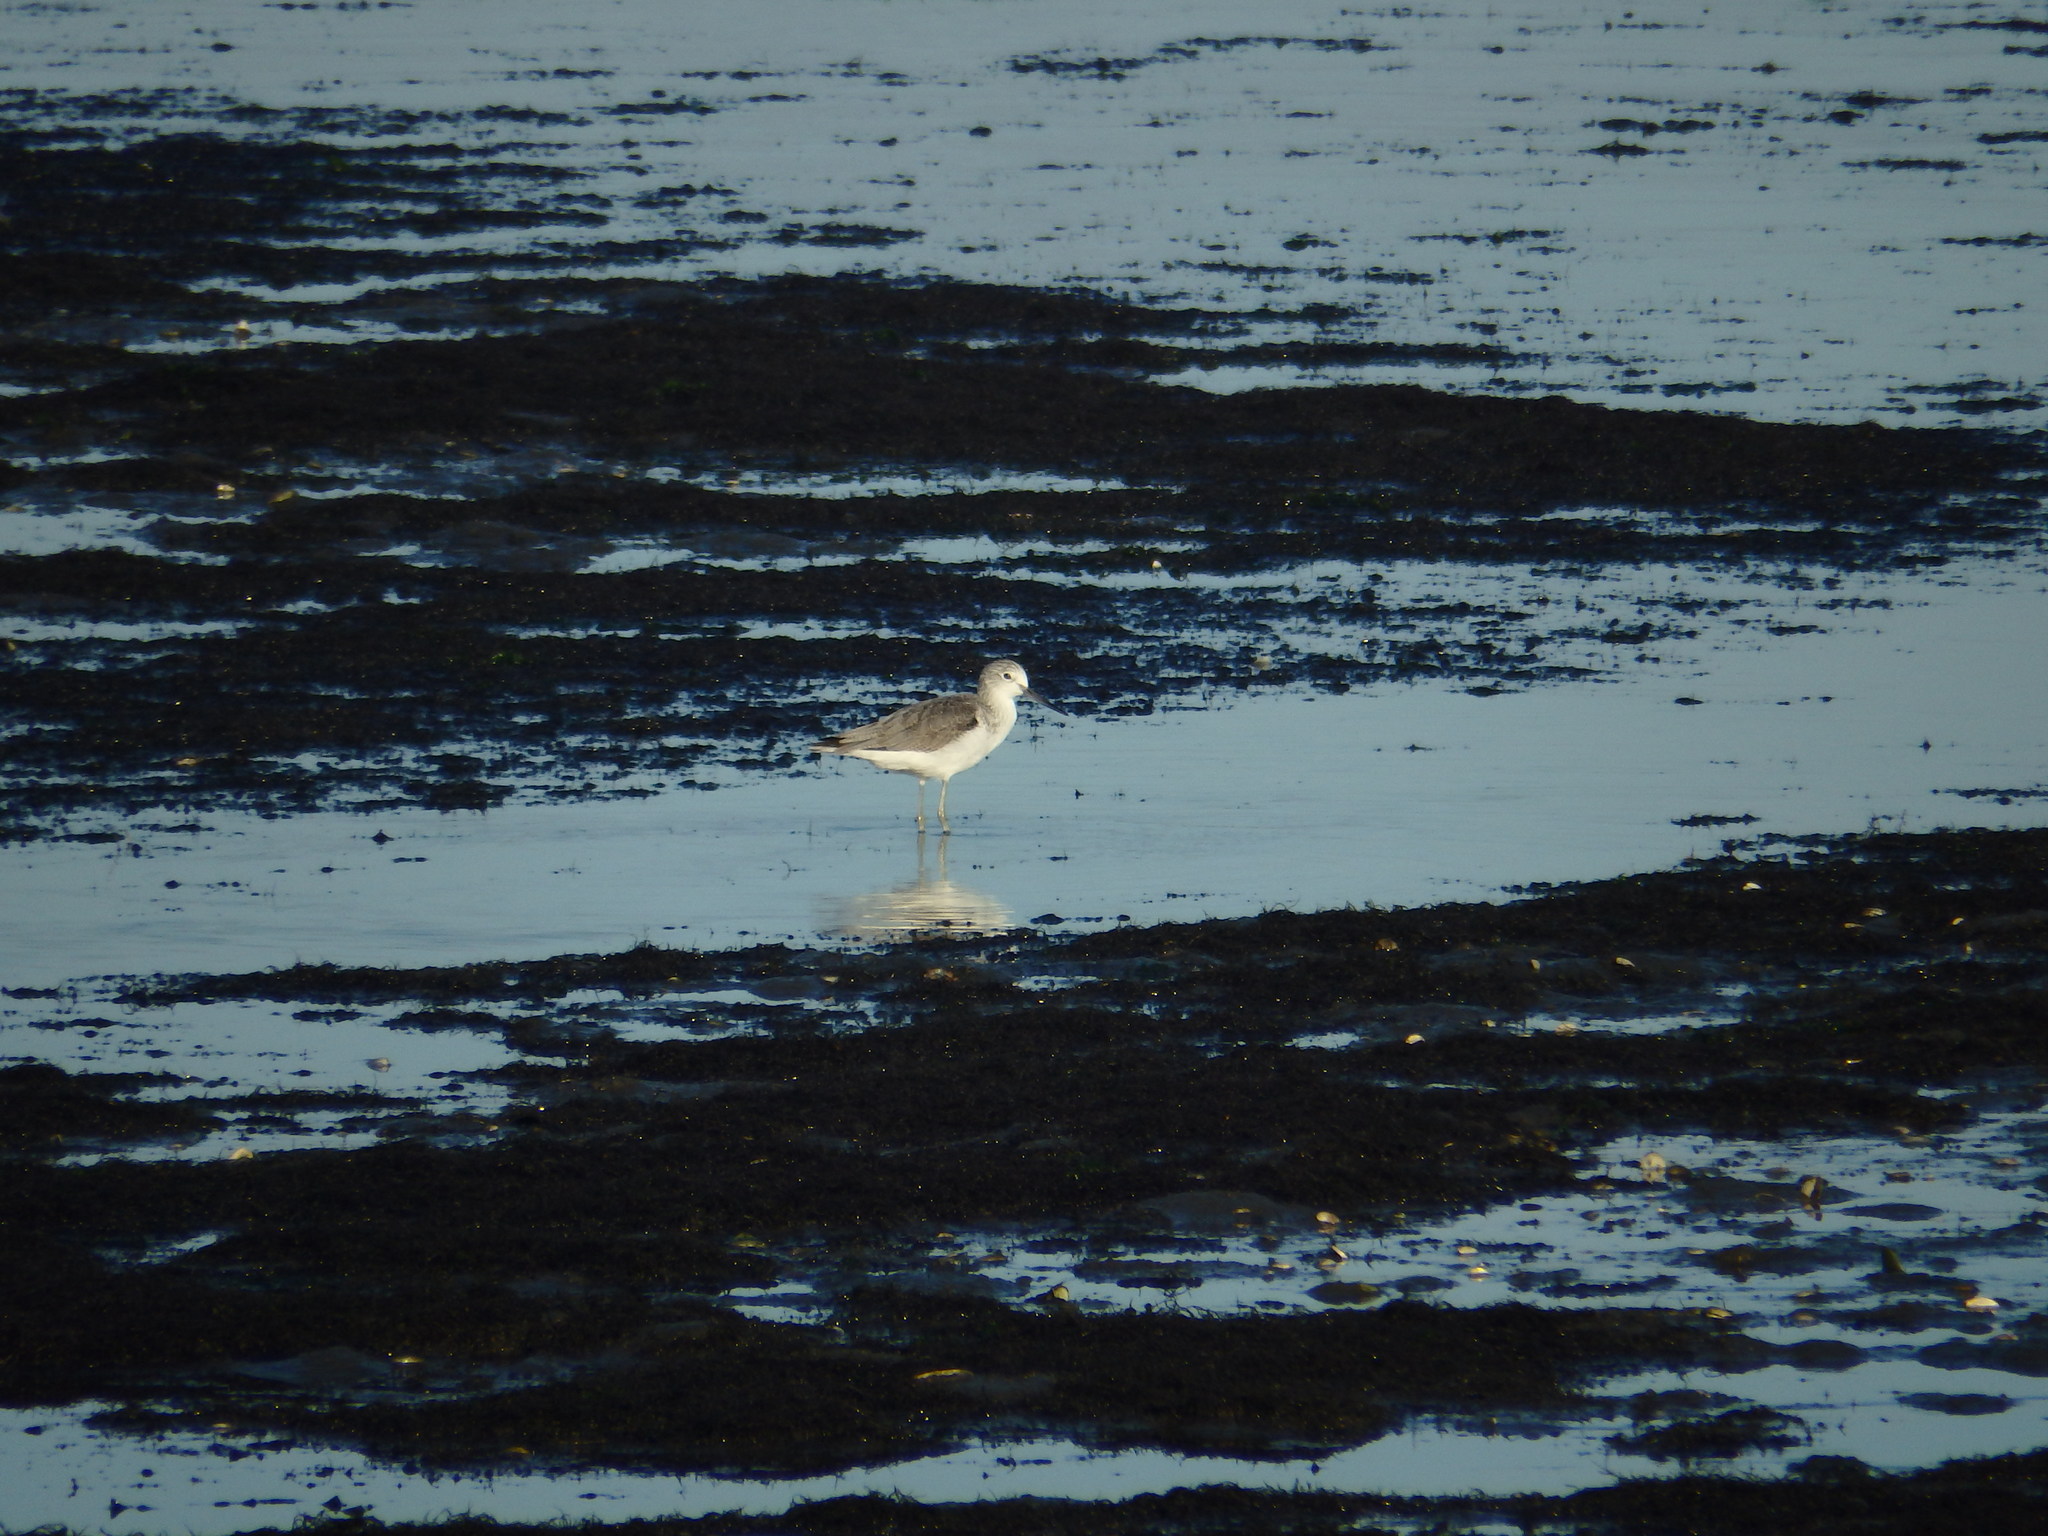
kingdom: Animalia
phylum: Chordata
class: Aves
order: Charadriiformes
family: Scolopacidae
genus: Tringa
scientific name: Tringa nebularia
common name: Common greenshank
